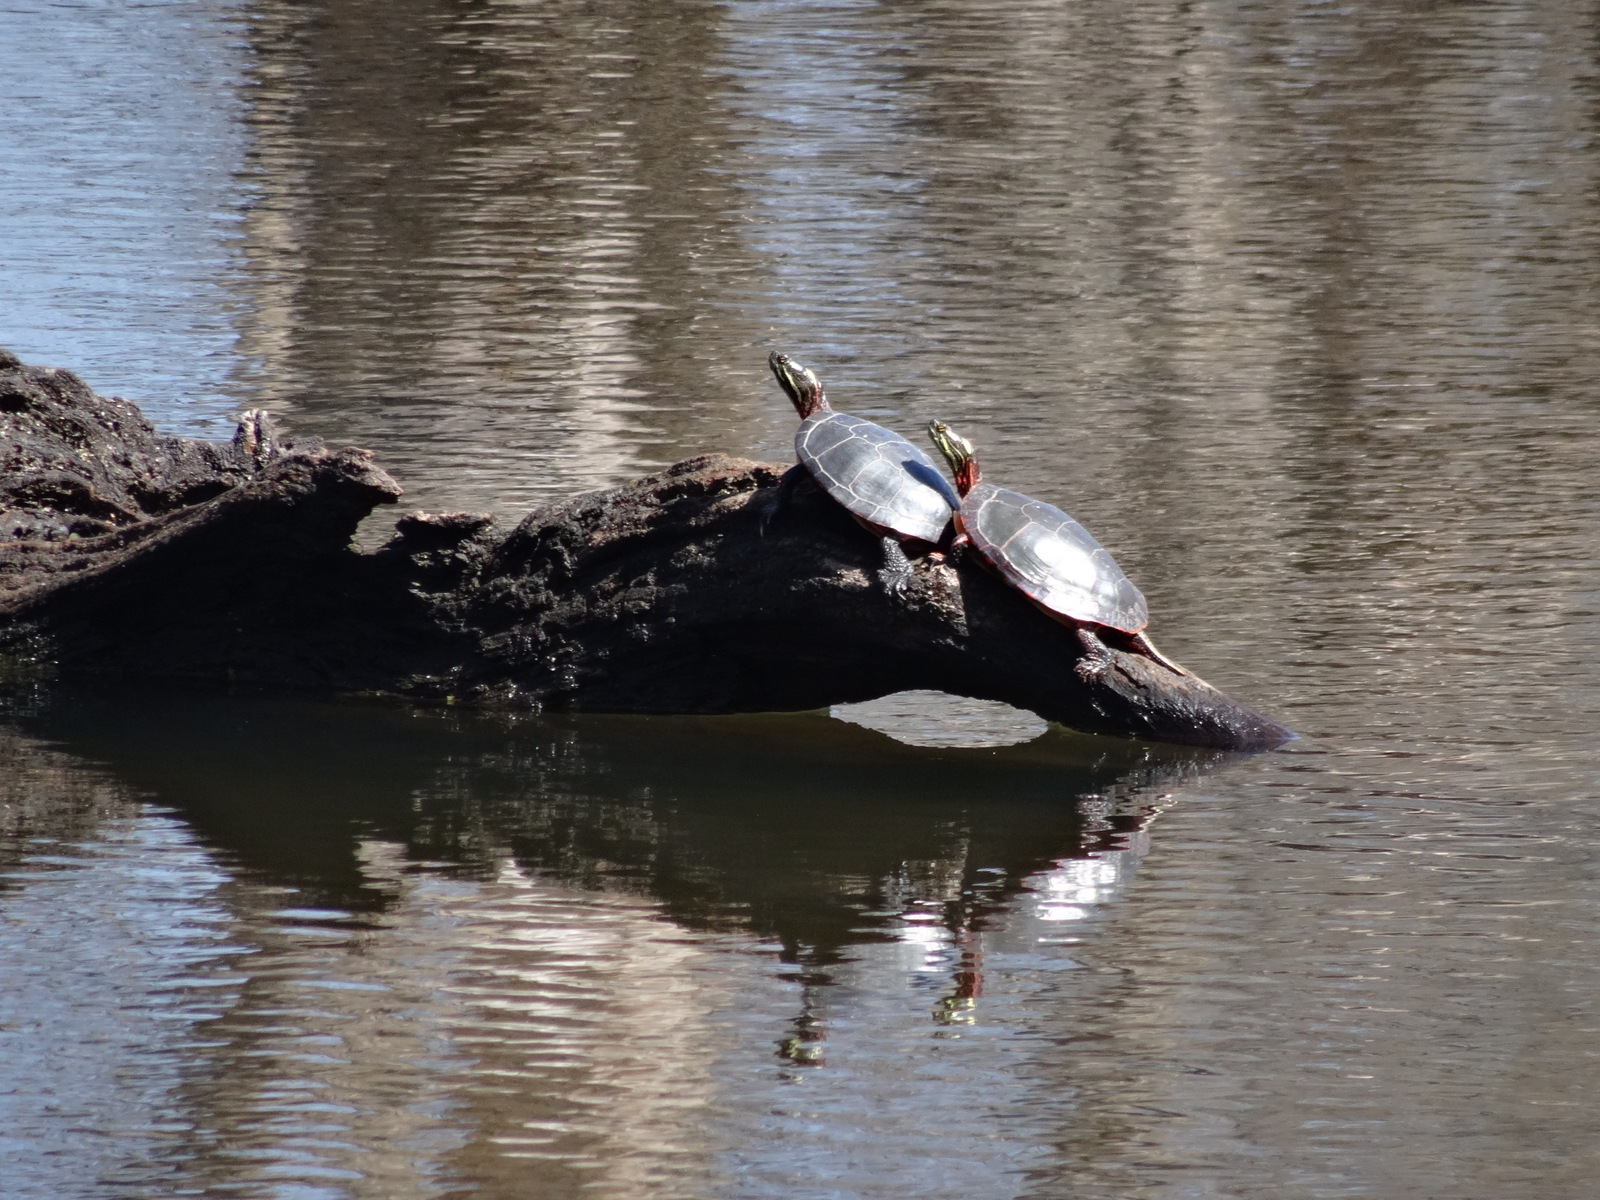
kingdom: Animalia
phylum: Chordata
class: Testudines
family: Emydidae
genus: Chrysemys
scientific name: Chrysemys picta
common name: Painted turtle
